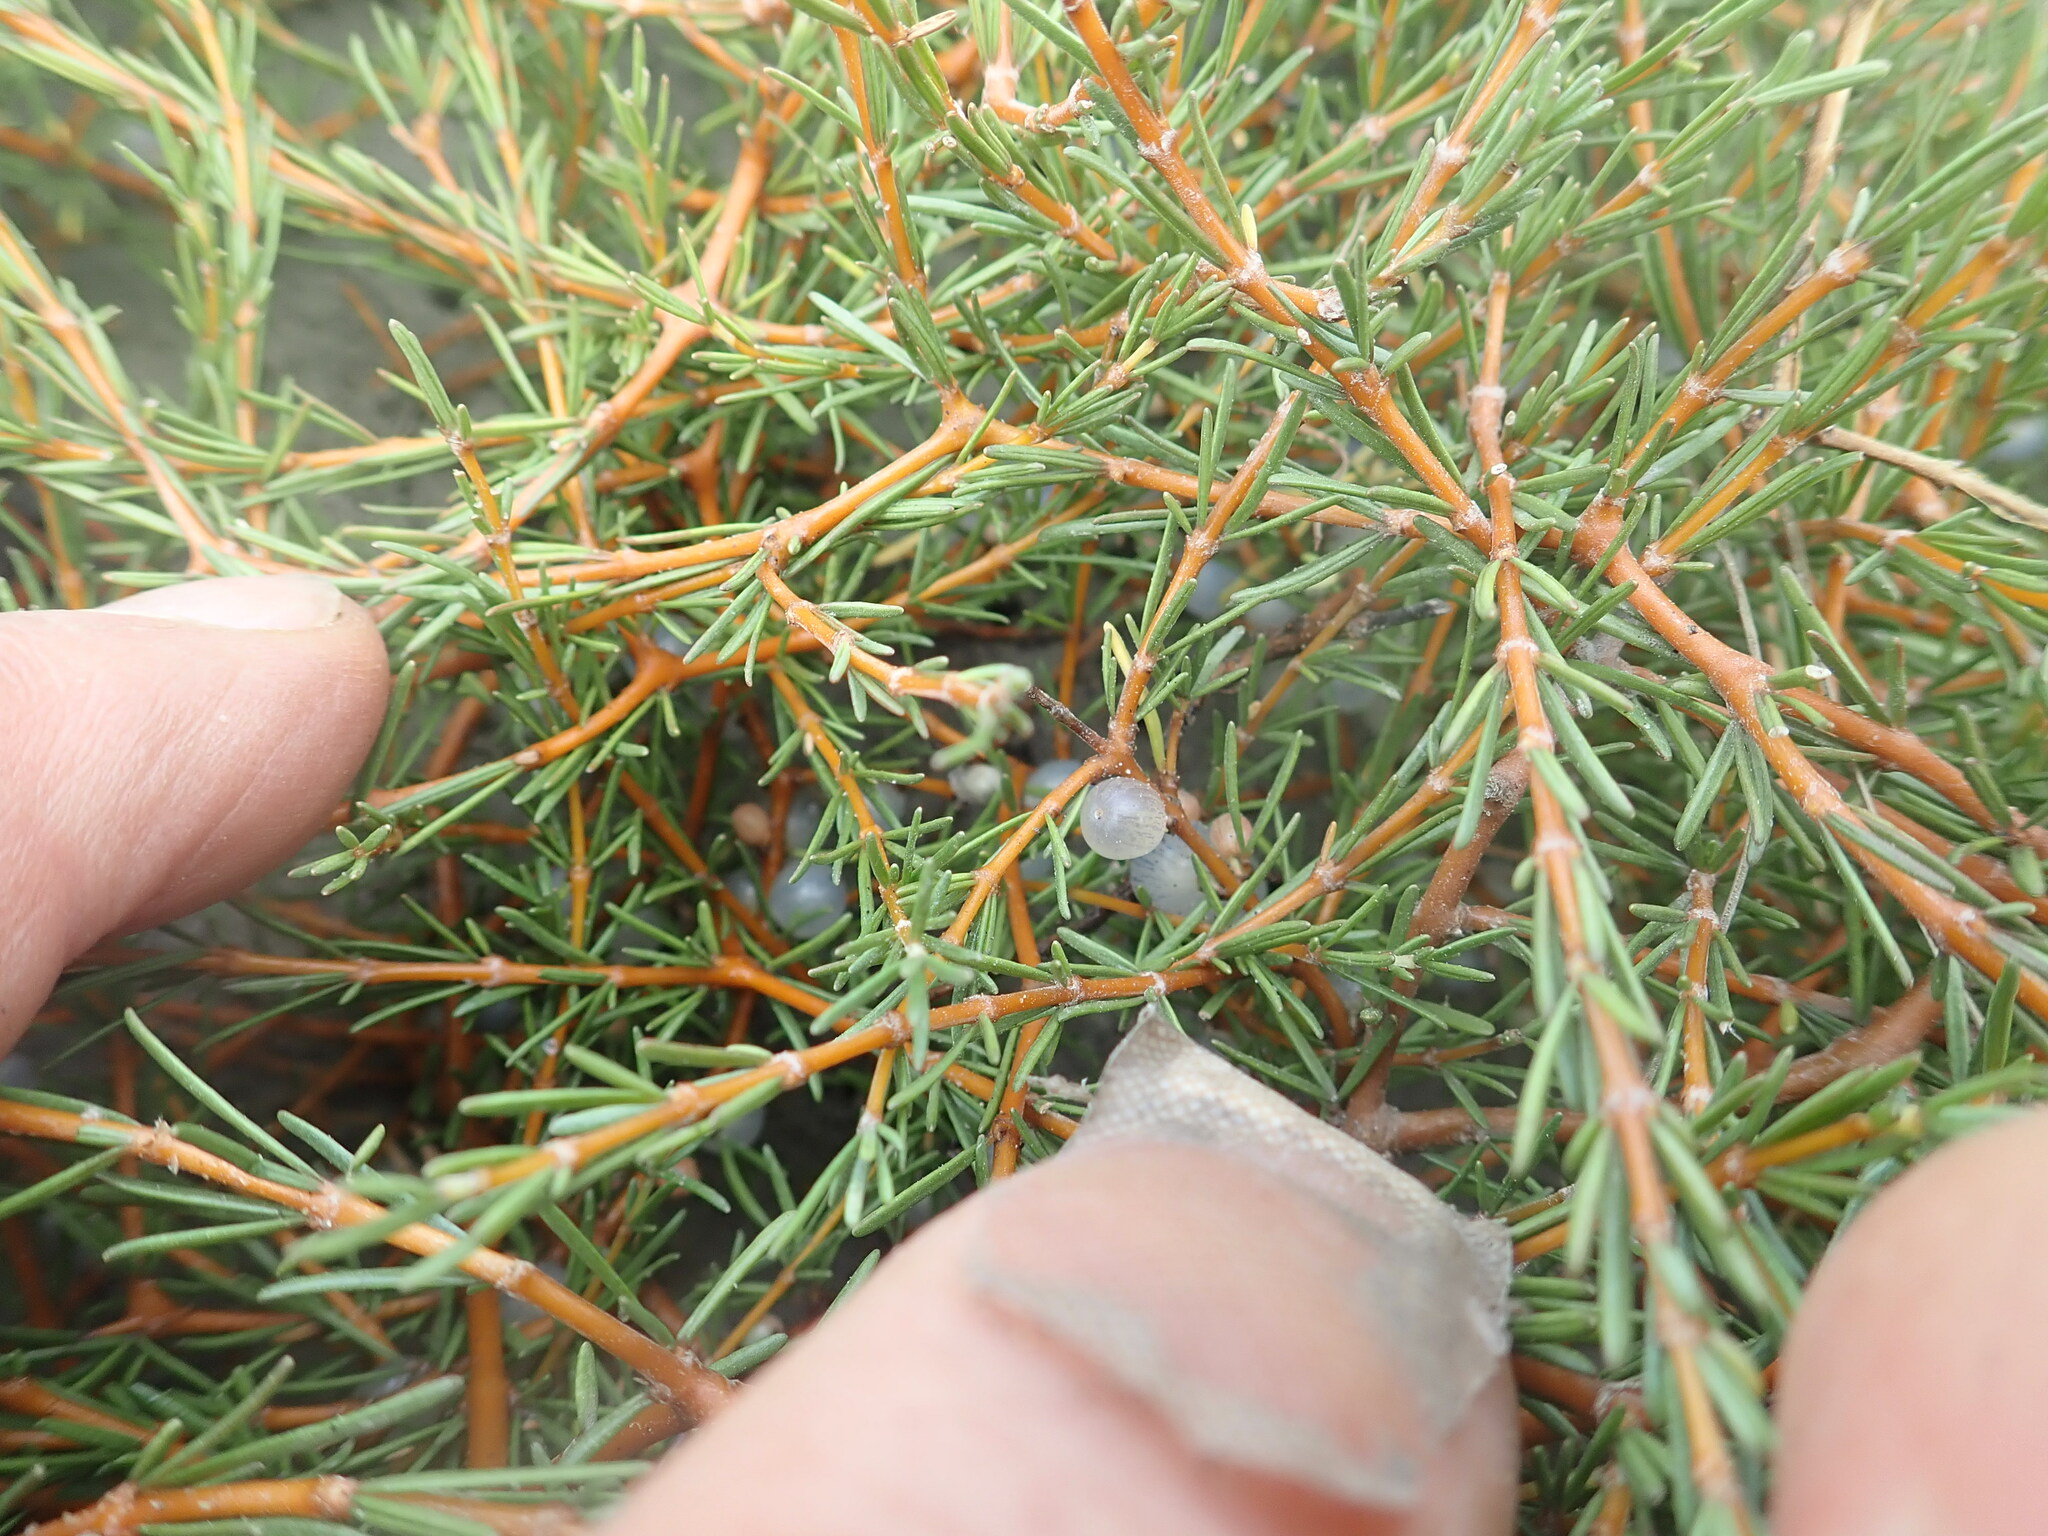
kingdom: Plantae
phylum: Tracheophyta
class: Magnoliopsida
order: Gentianales
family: Rubiaceae
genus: Coprosma
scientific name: Coprosma acerosa
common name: Sand coprosma
